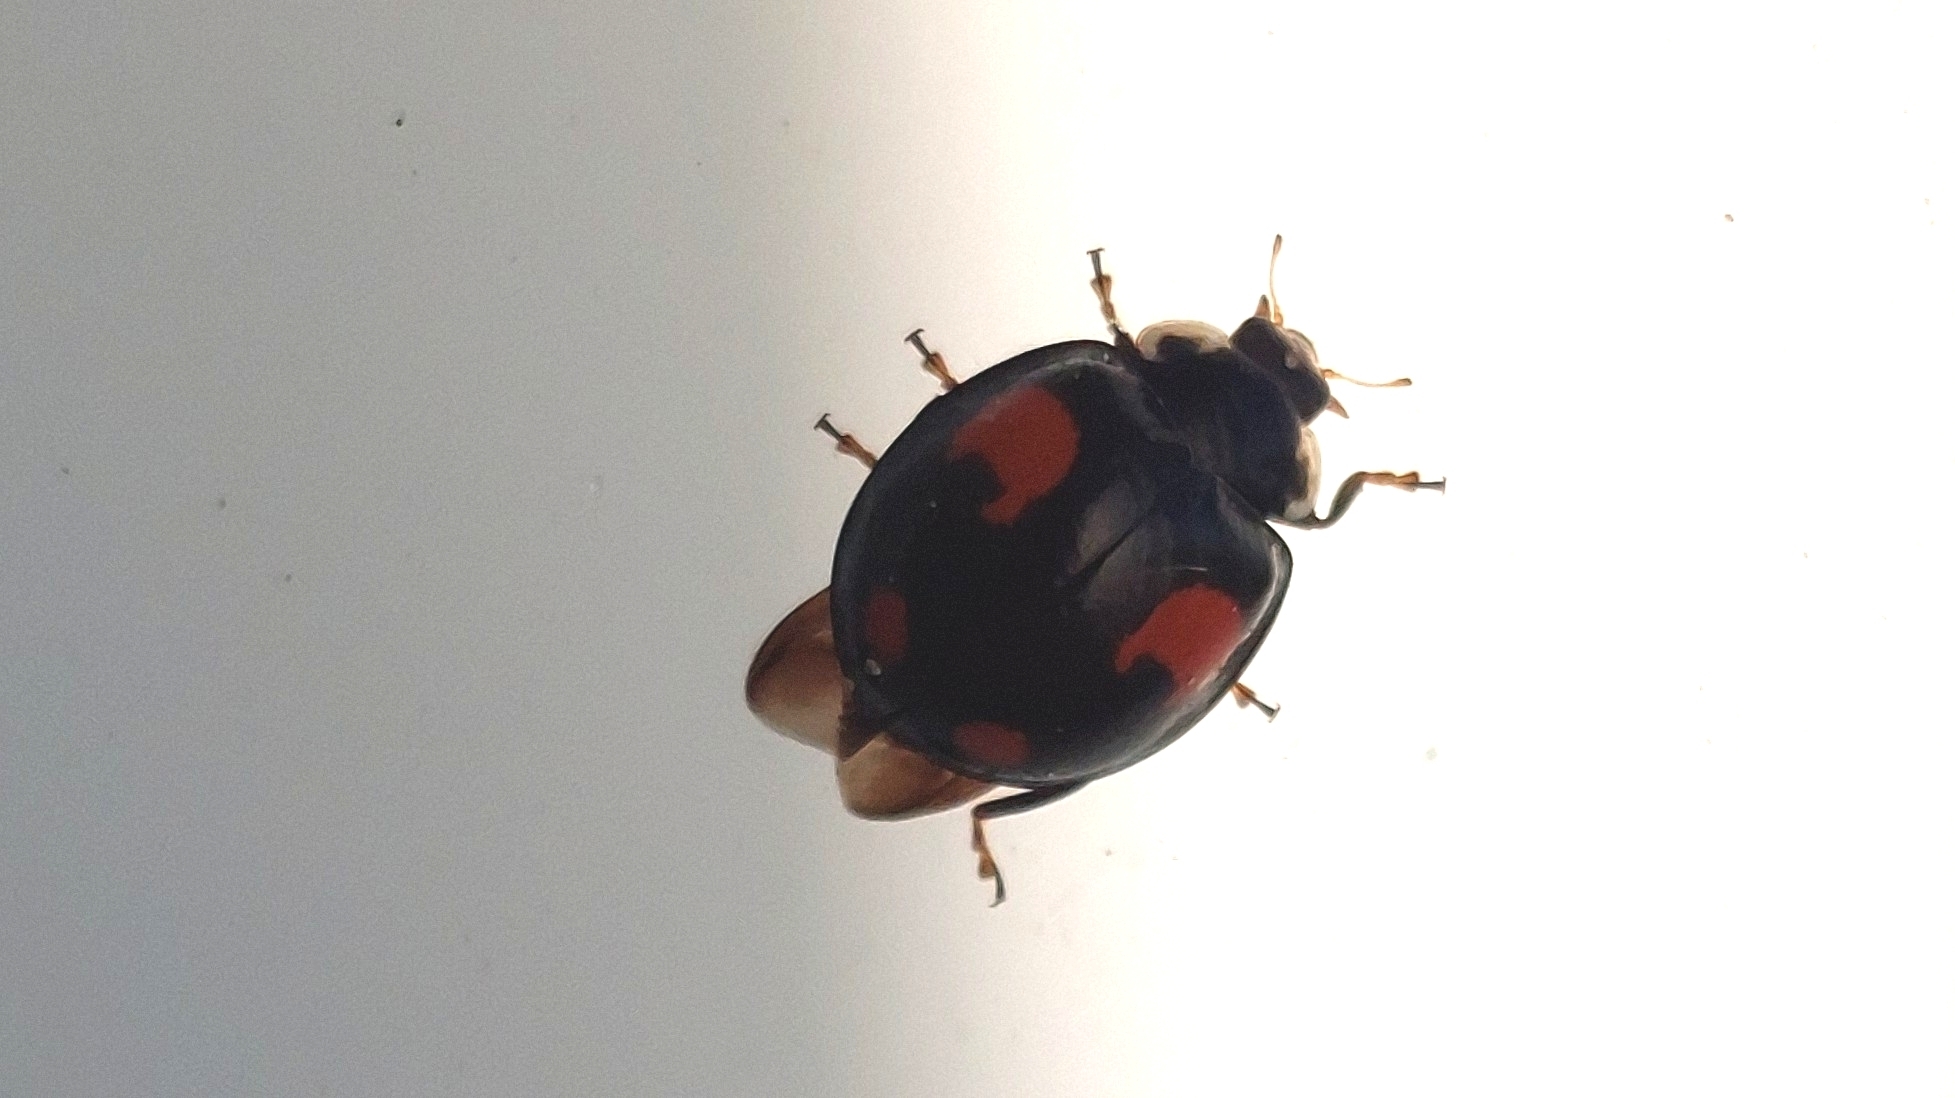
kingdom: Animalia
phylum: Arthropoda
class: Insecta
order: Coleoptera
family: Coccinellidae
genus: Harmonia
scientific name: Harmonia axyridis
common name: Harlequin ladybird
